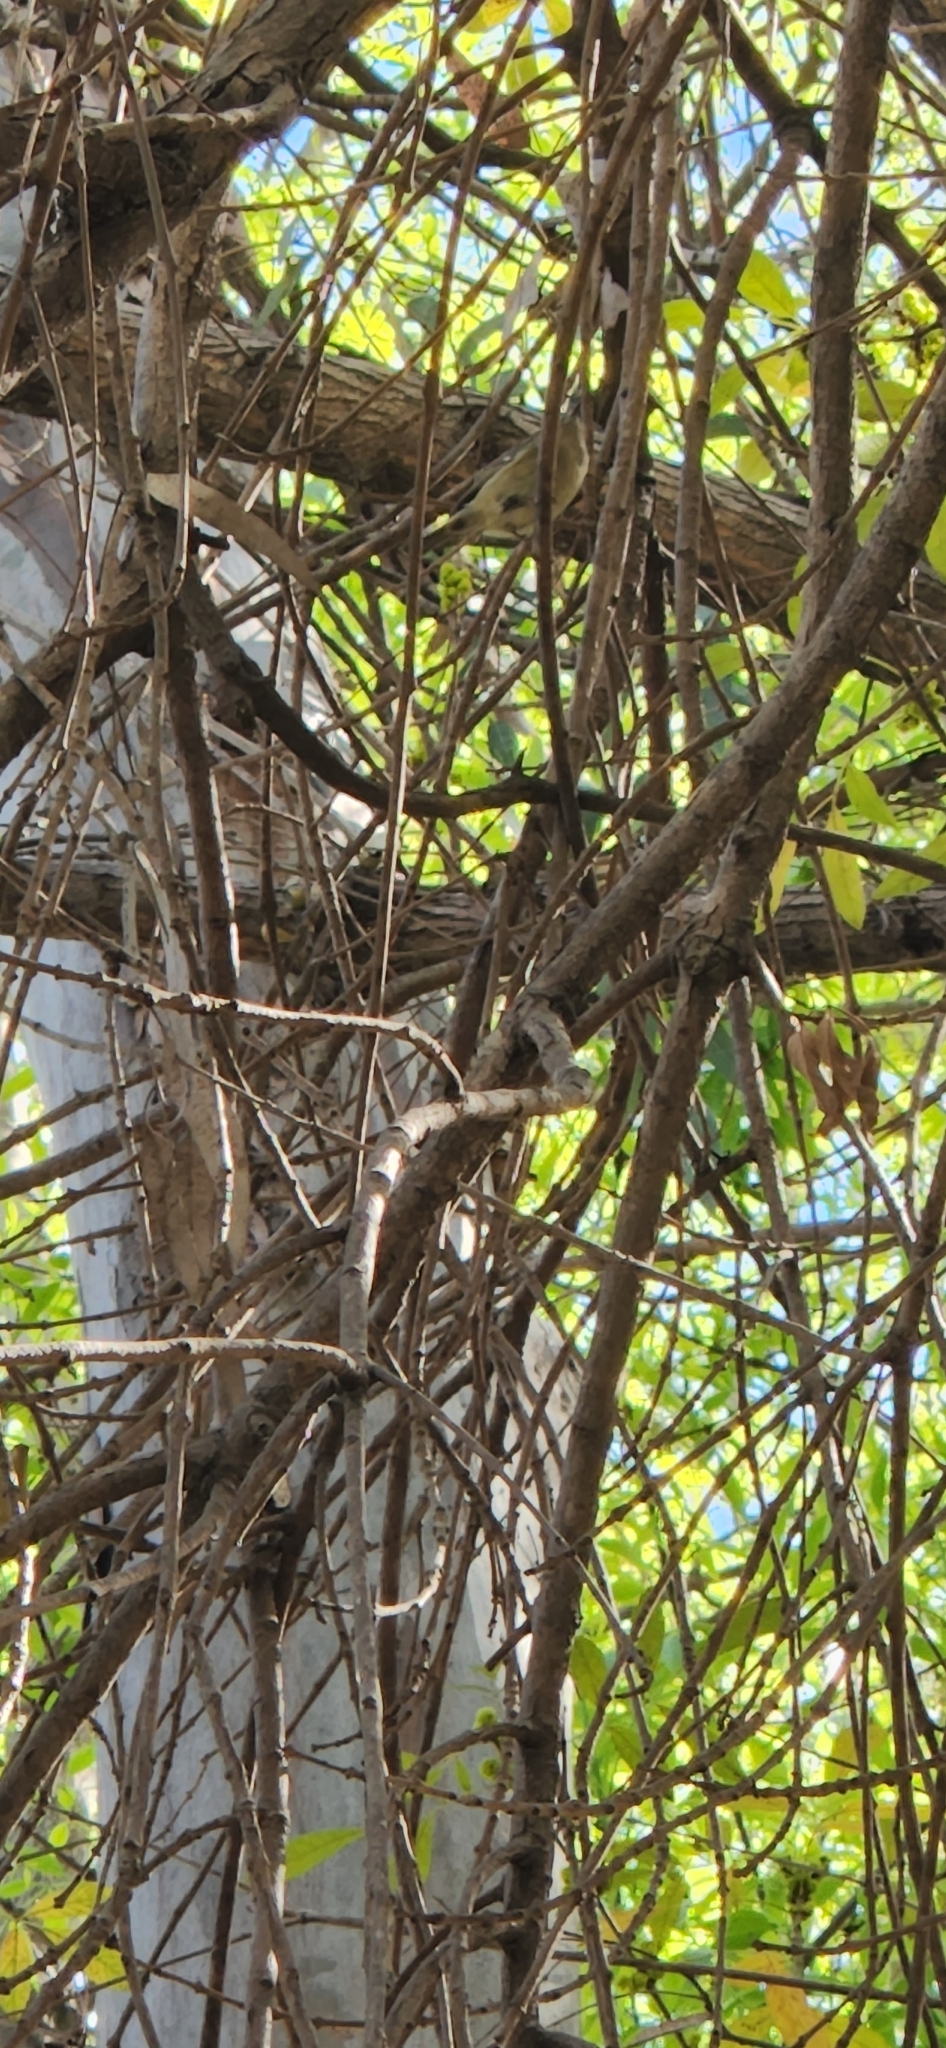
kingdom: Animalia
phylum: Chordata
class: Aves
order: Passeriformes
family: Regulidae
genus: Regulus
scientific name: Regulus calendula
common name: Ruby-crowned kinglet
